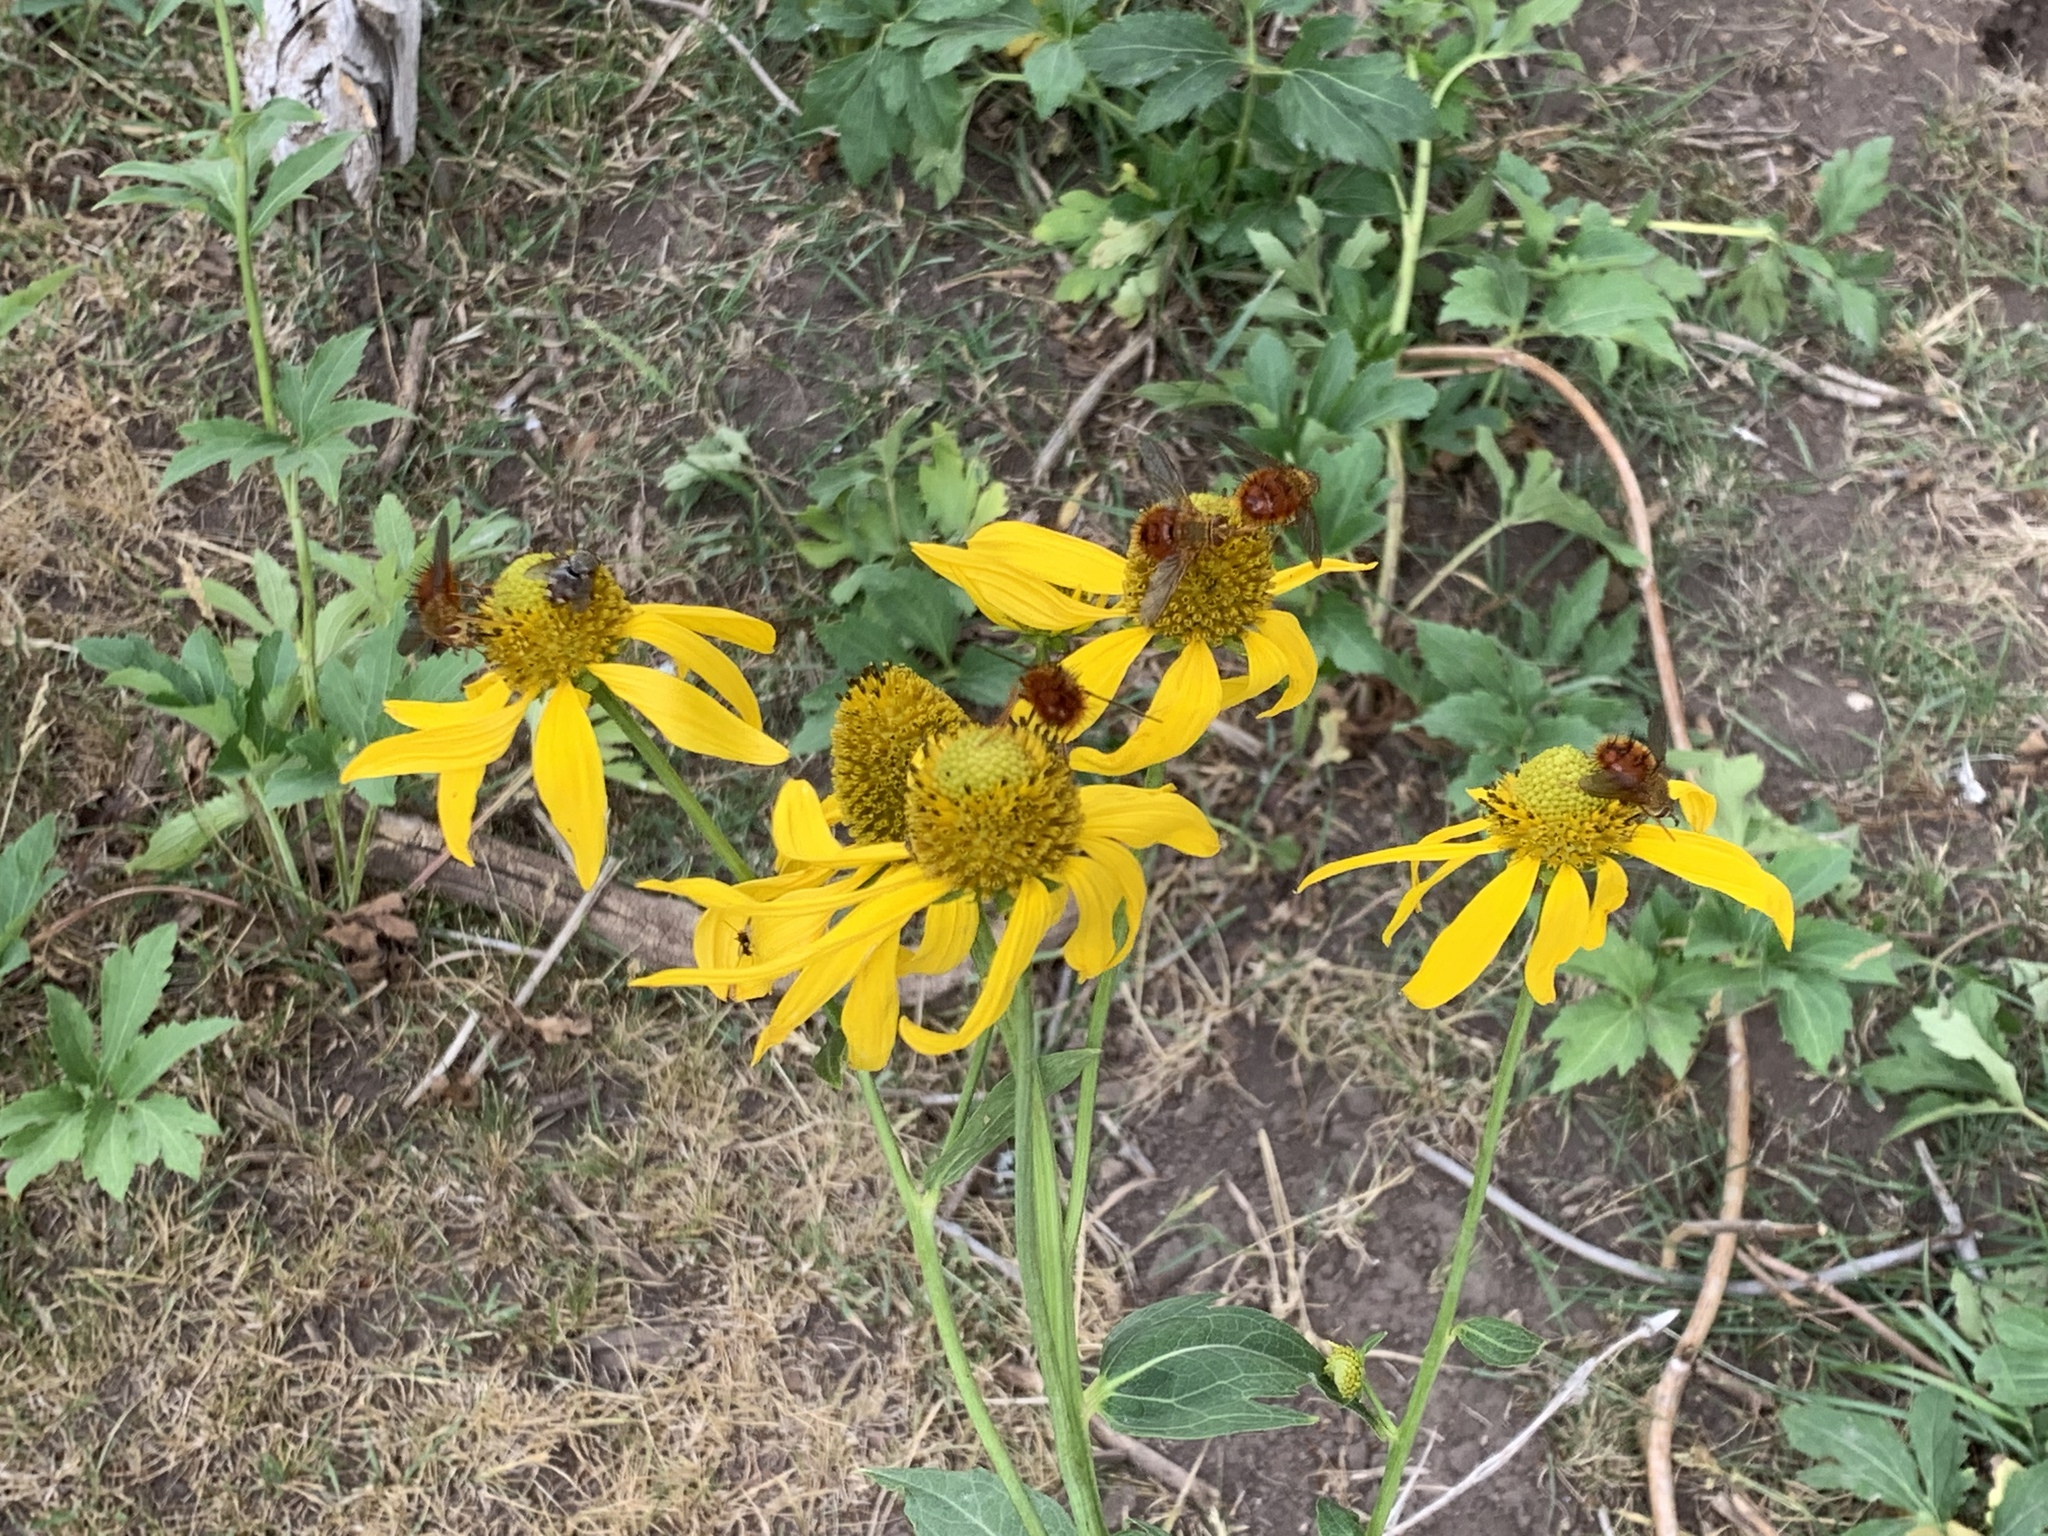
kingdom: Animalia
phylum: Arthropoda
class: Insecta
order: Diptera
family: Tachinidae
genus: Adejeania
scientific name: Adejeania vexatrix
